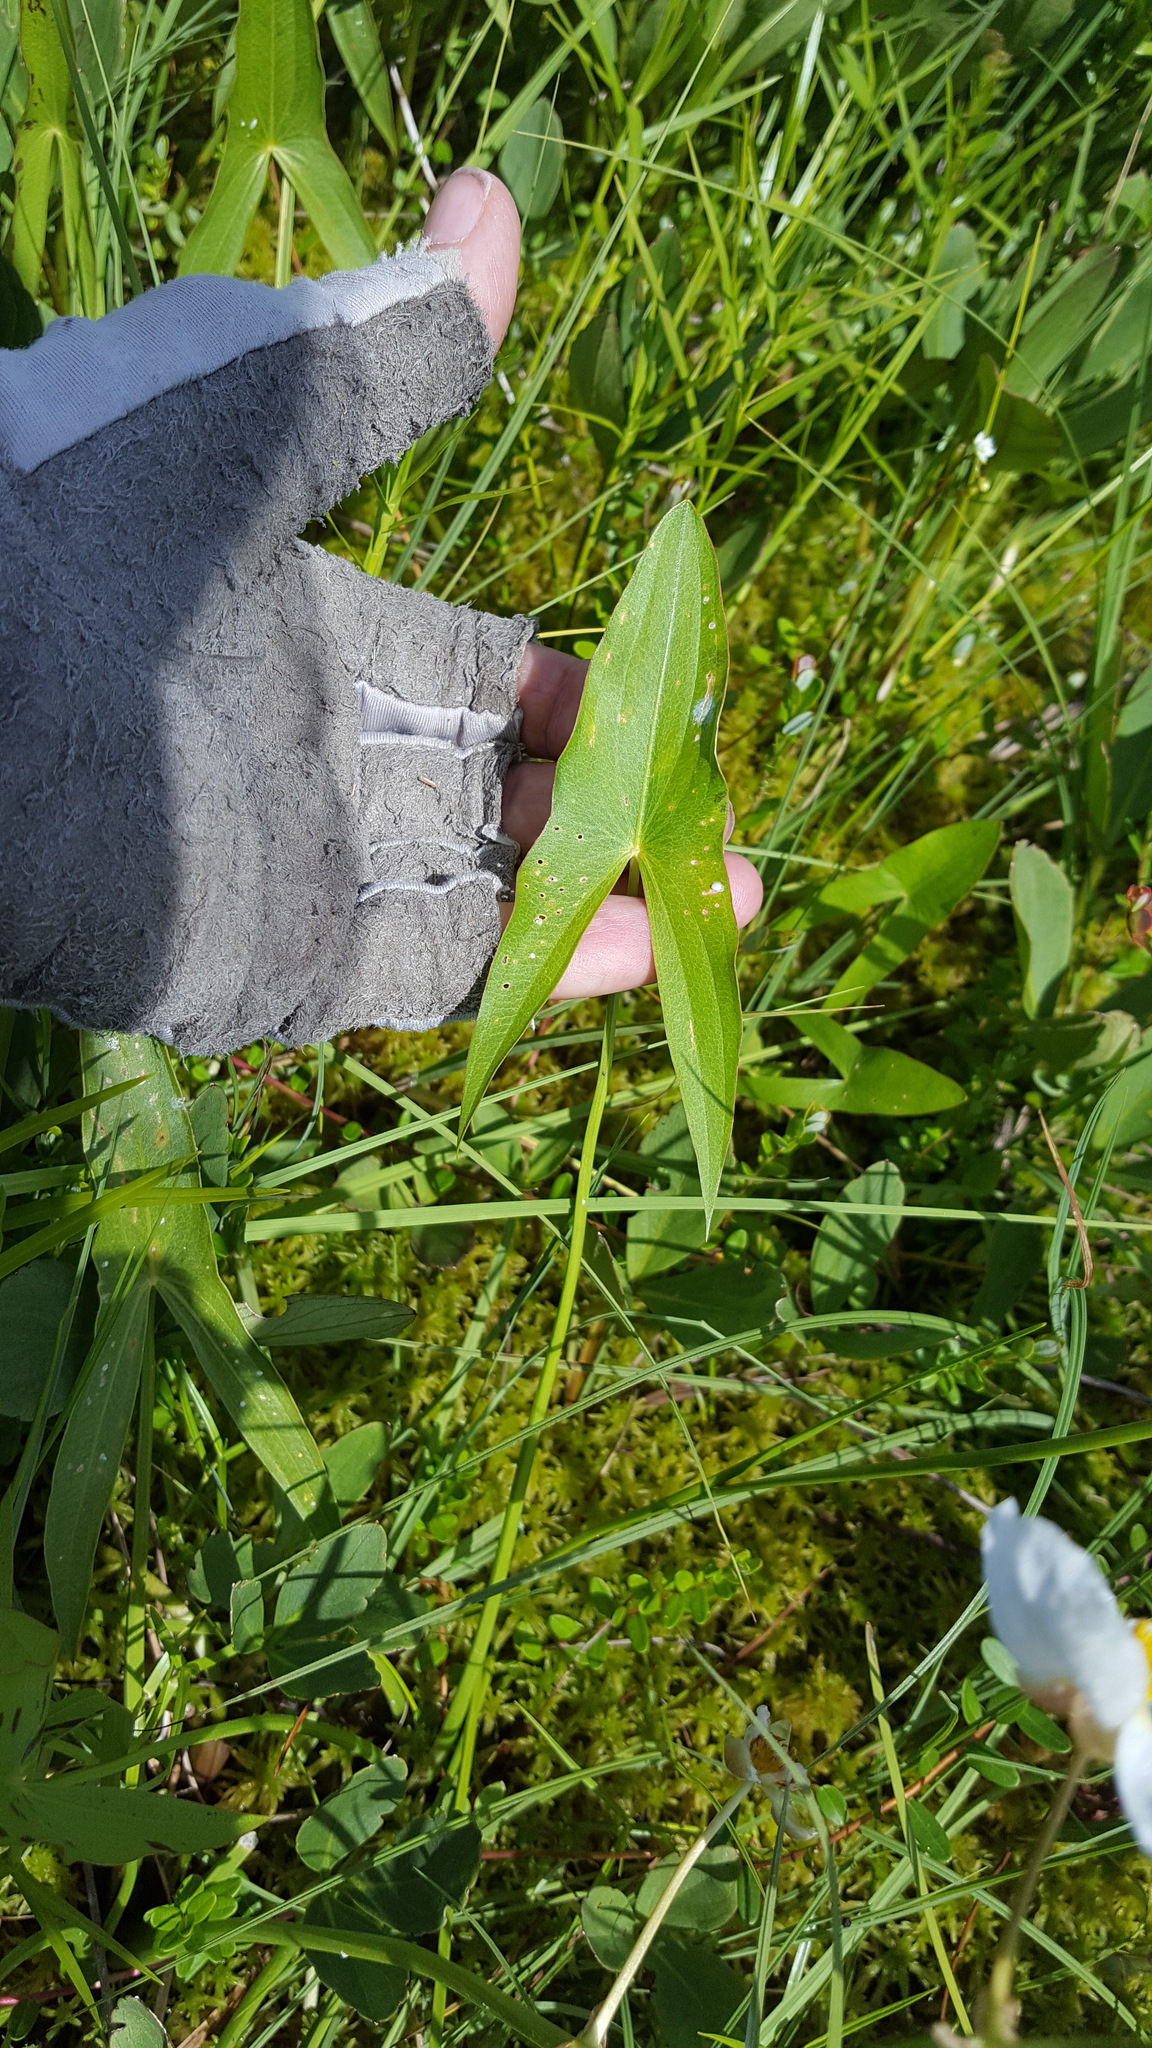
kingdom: Plantae
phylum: Tracheophyta
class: Liliopsida
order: Alismatales
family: Alismataceae
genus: Sagittaria
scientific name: Sagittaria latifolia
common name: Duck-potato
